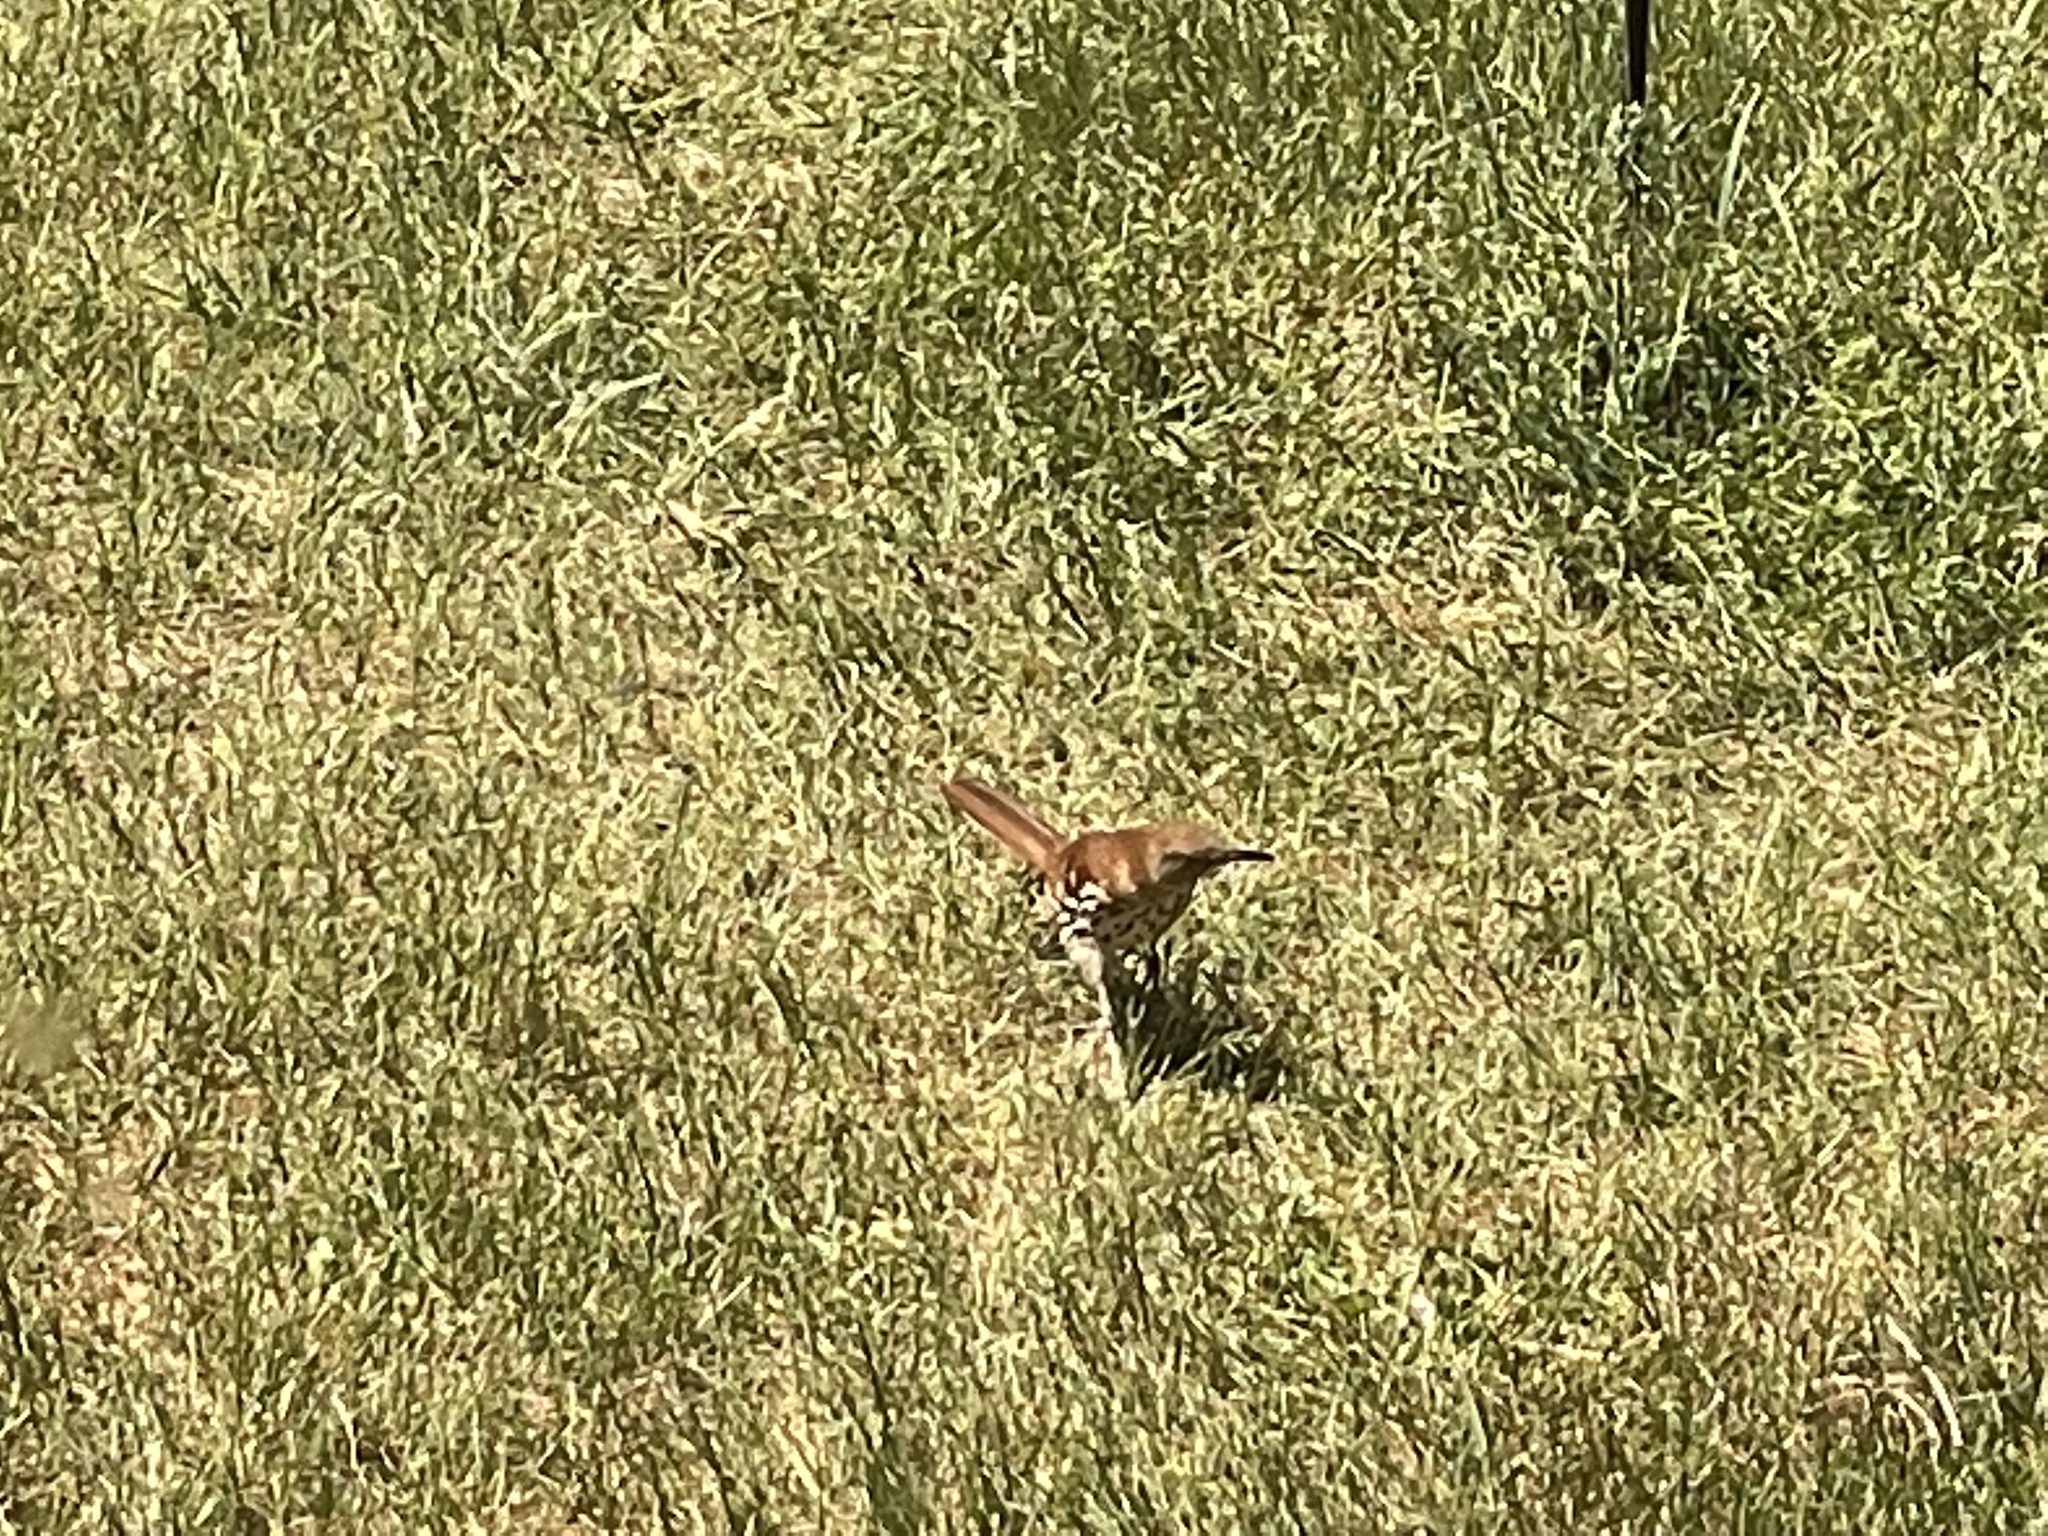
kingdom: Animalia
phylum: Chordata
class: Aves
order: Passeriformes
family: Mimidae
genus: Toxostoma
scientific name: Toxostoma rufum
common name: Brown thrasher
